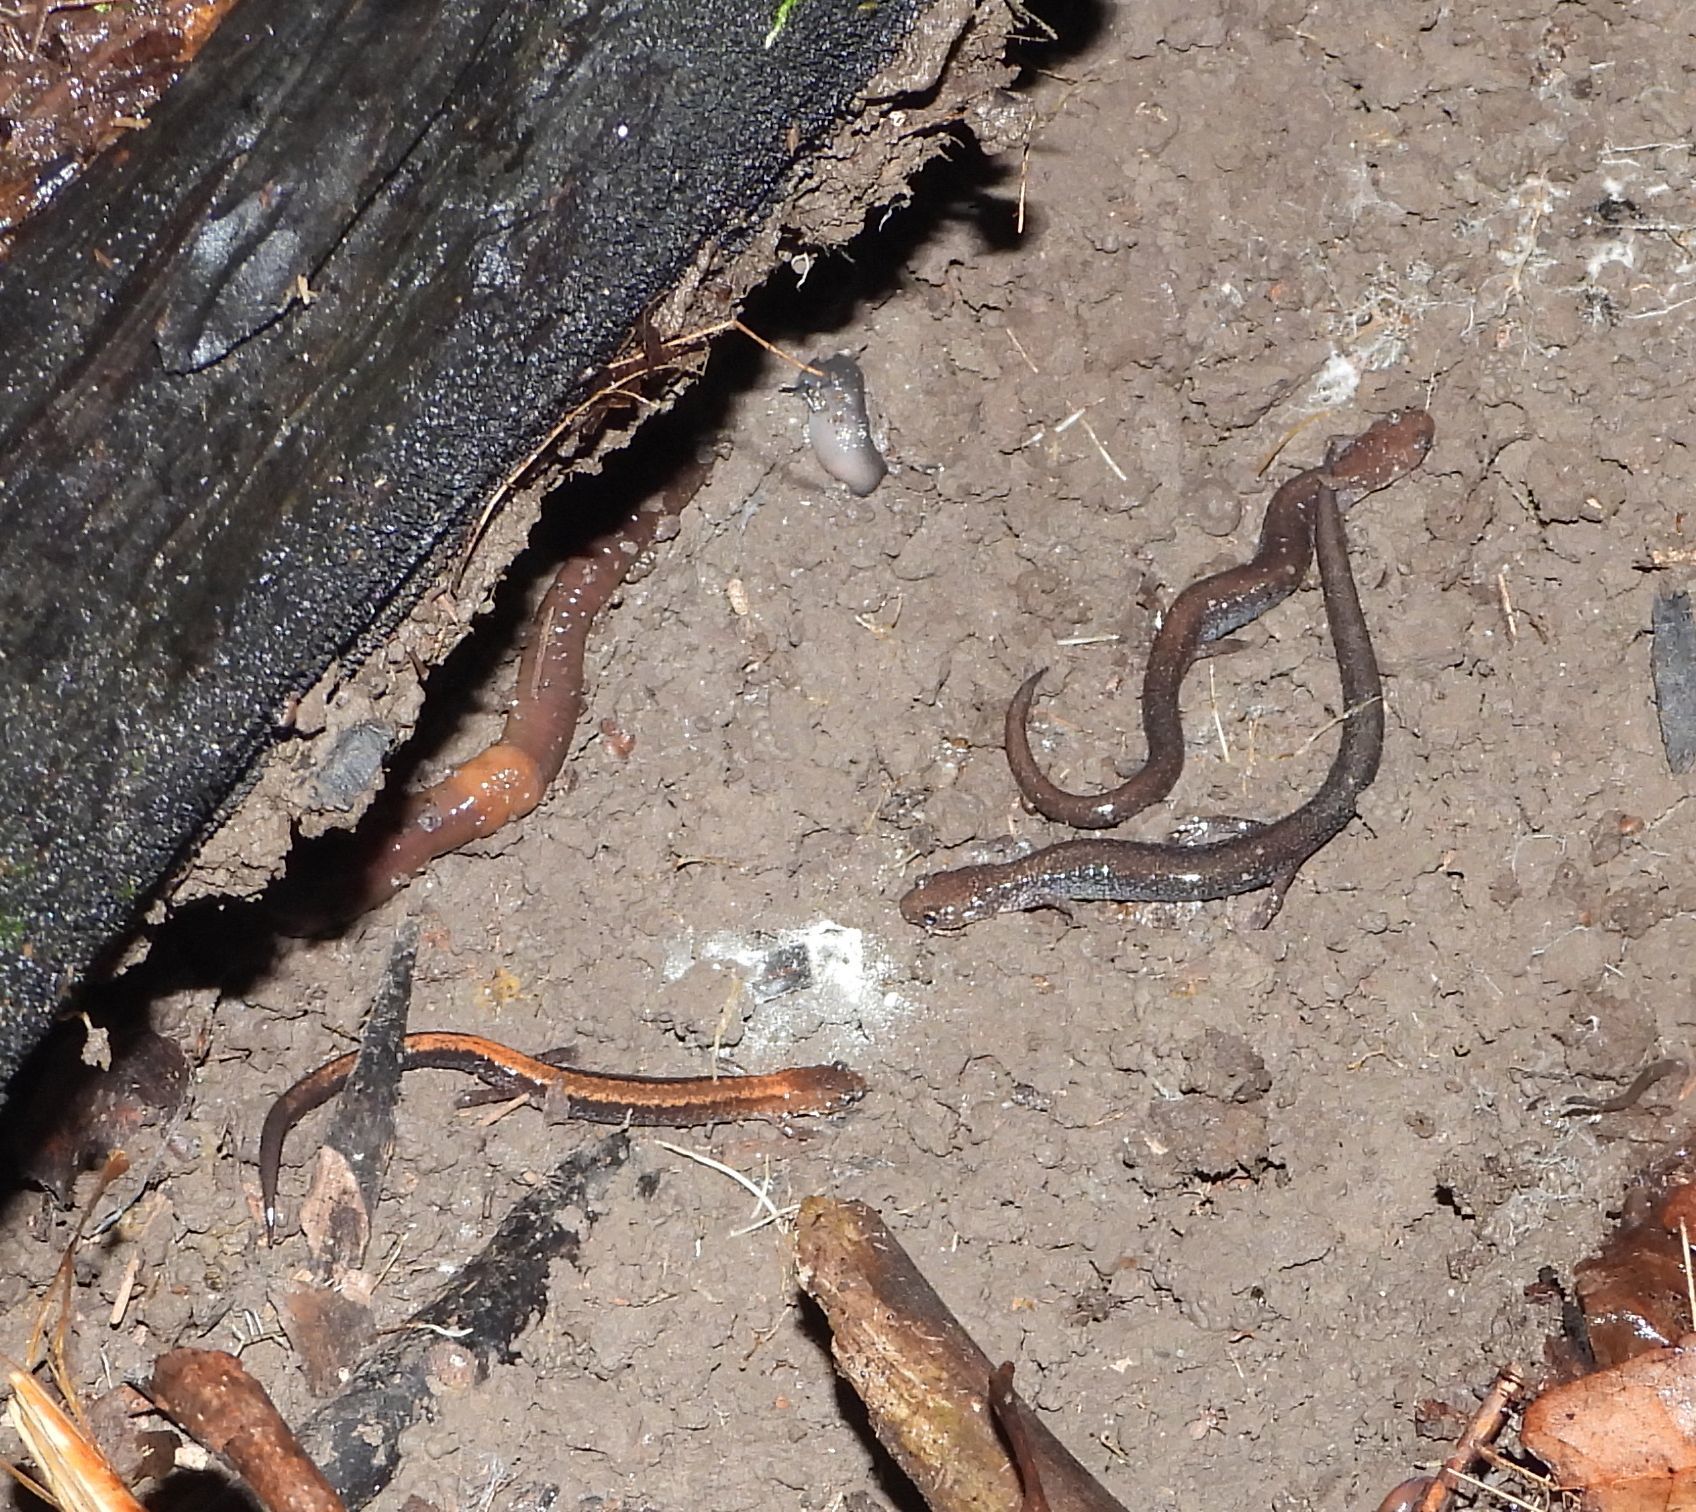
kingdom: Animalia
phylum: Chordata
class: Amphibia
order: Caudata
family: Plethodontidae
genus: Plethodon
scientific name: Plethodon cinereus
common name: Redback salamander
